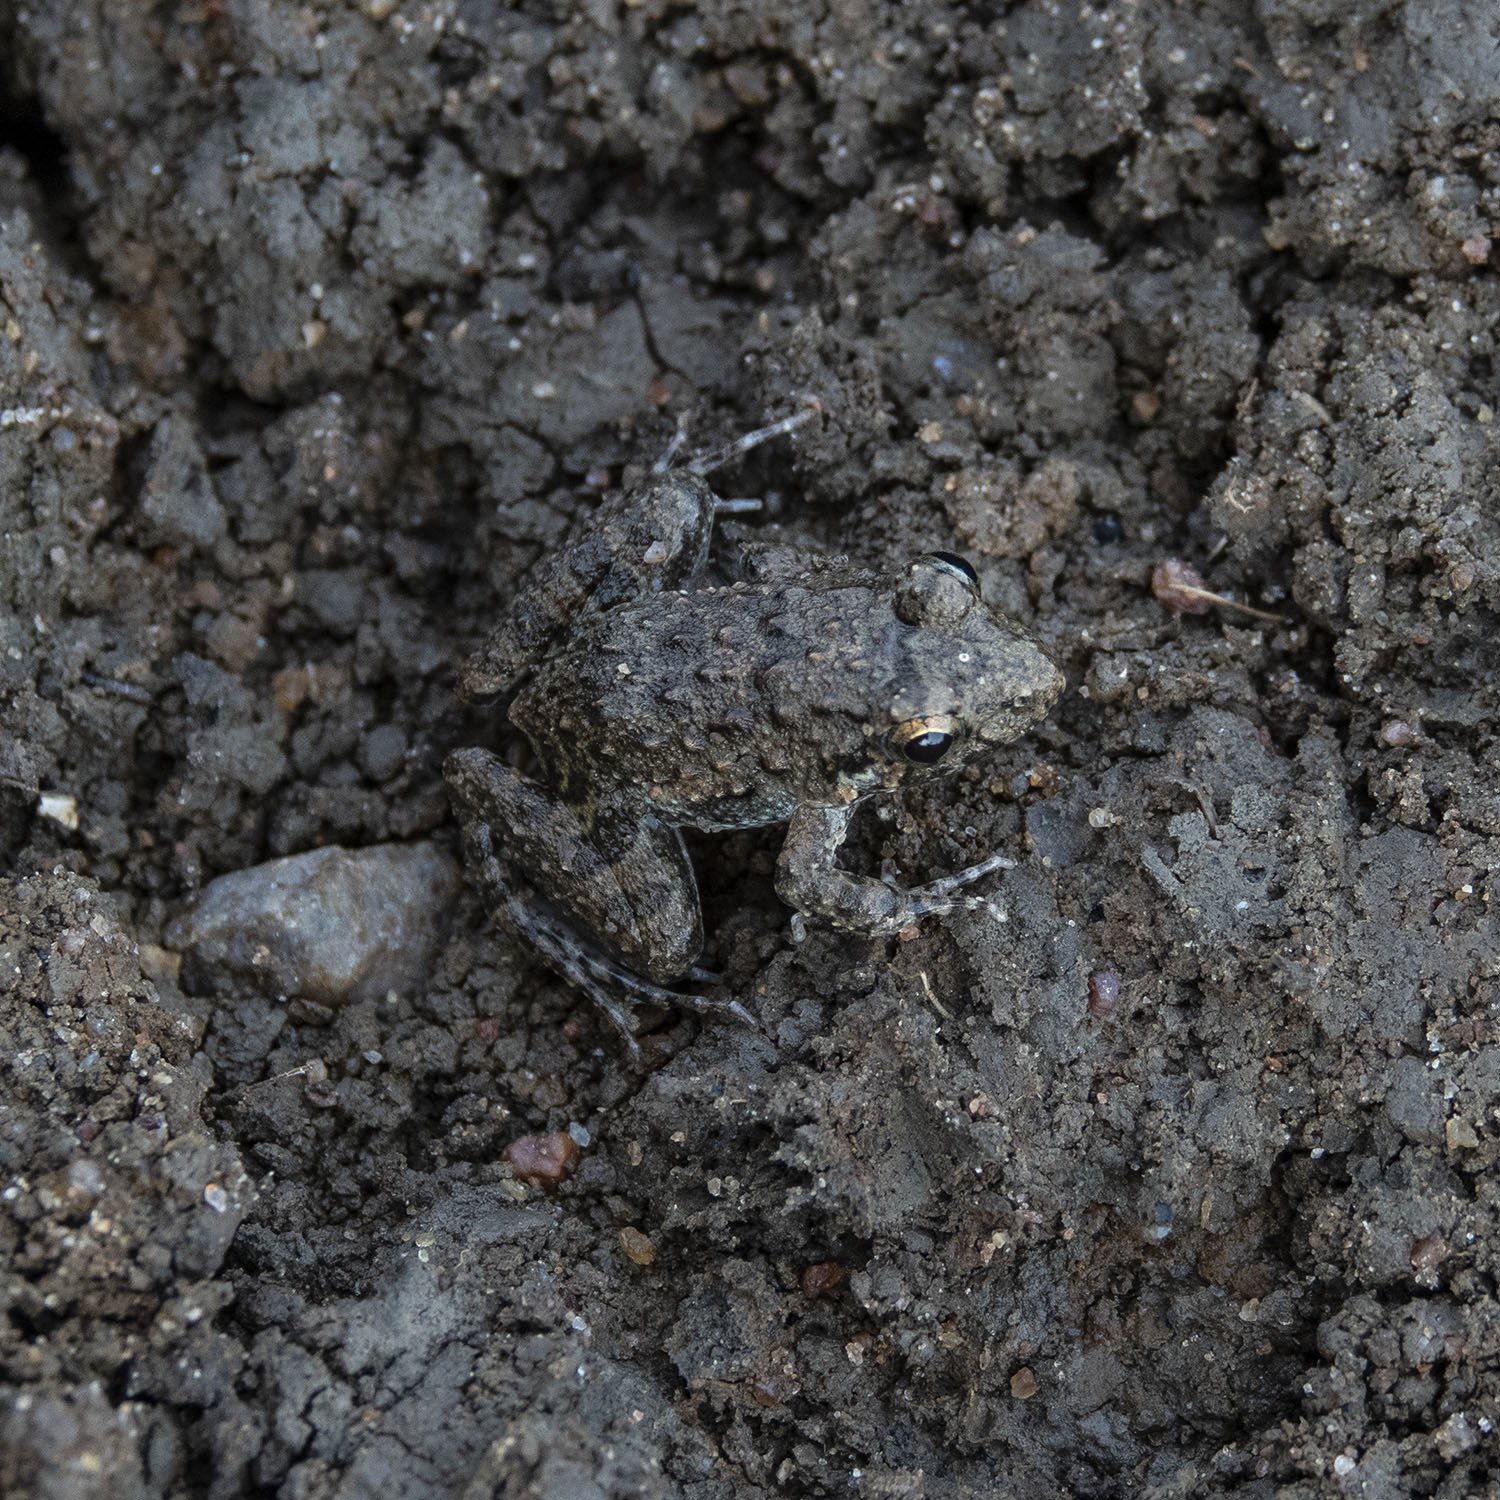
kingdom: Animalia
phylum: Chordata
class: Amphibia
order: Anura
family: Dicroglossidae
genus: Minervarya
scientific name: Minervarya agricola
